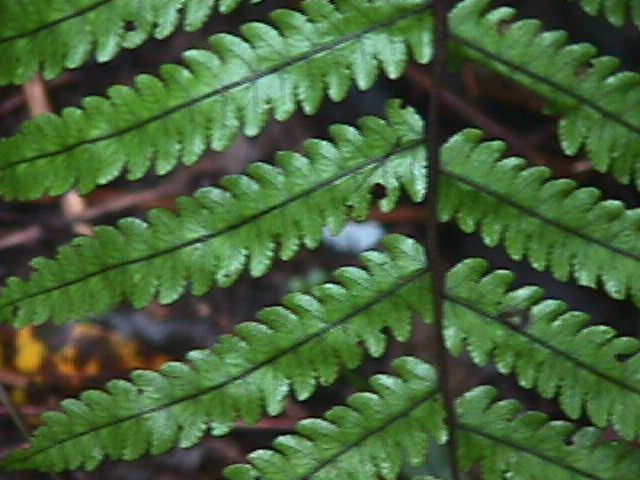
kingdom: Plantae
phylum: Tracheophyta
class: Polypodiopsida
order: Polypodiales
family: Thelypteridaceae
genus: Pakau
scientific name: Pakau pennigera
